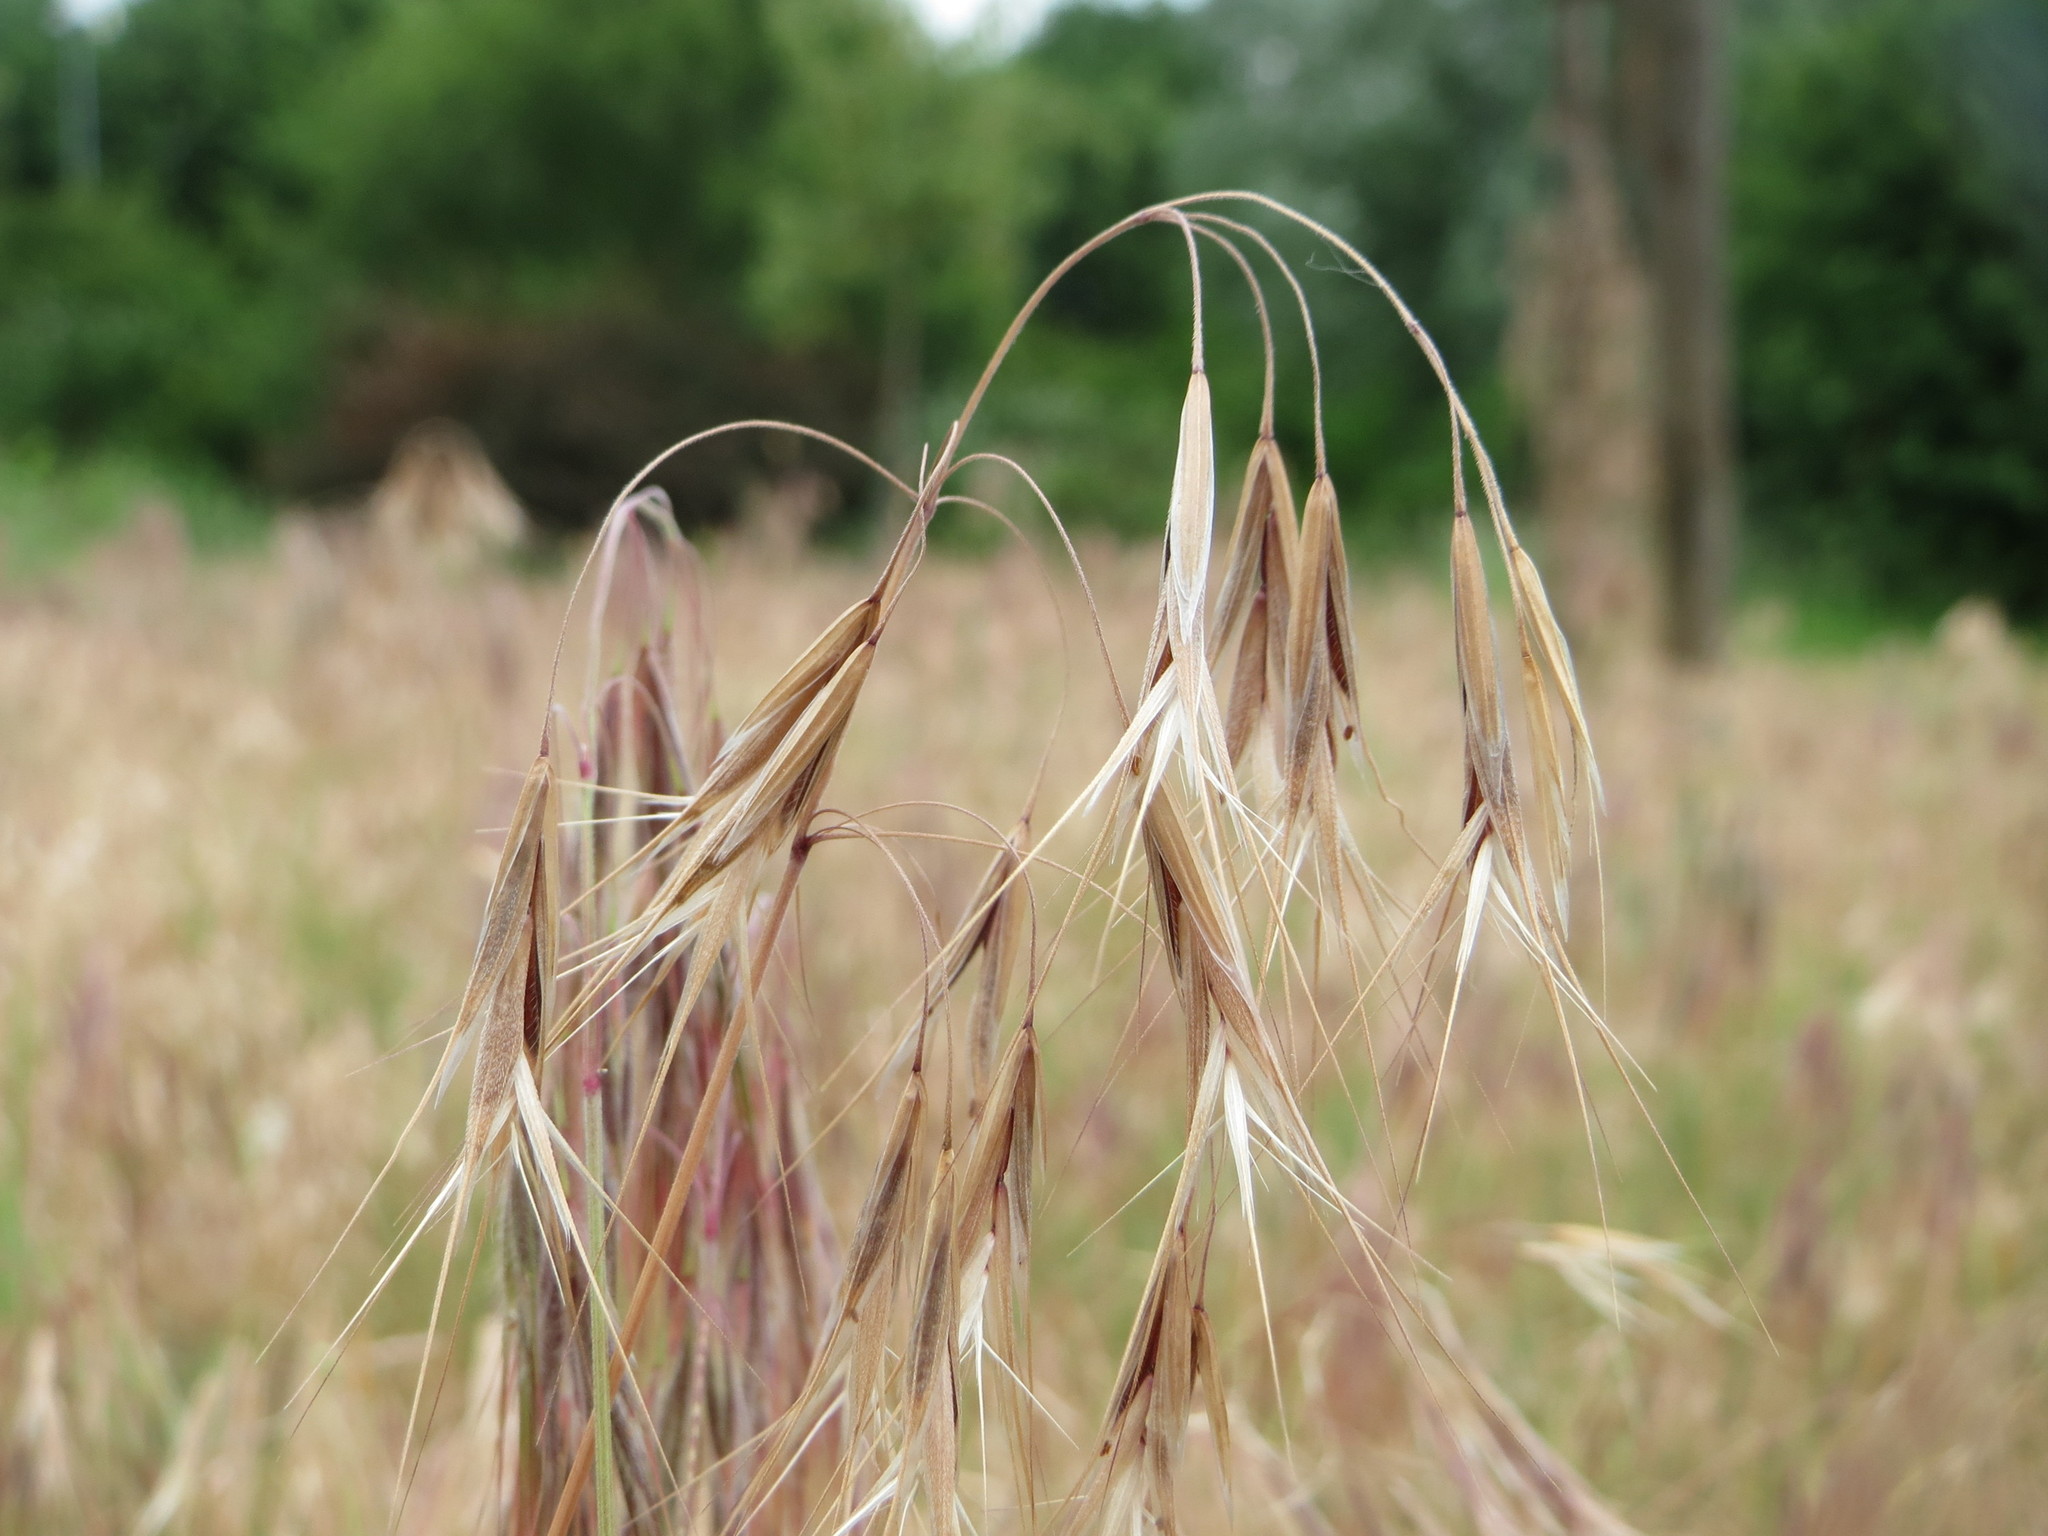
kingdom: Plantae
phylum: Tracheophyta
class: Liliopsida
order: Poales
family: Poaceae
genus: Bromus
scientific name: Bromus tectorum
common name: Cheatgrass
